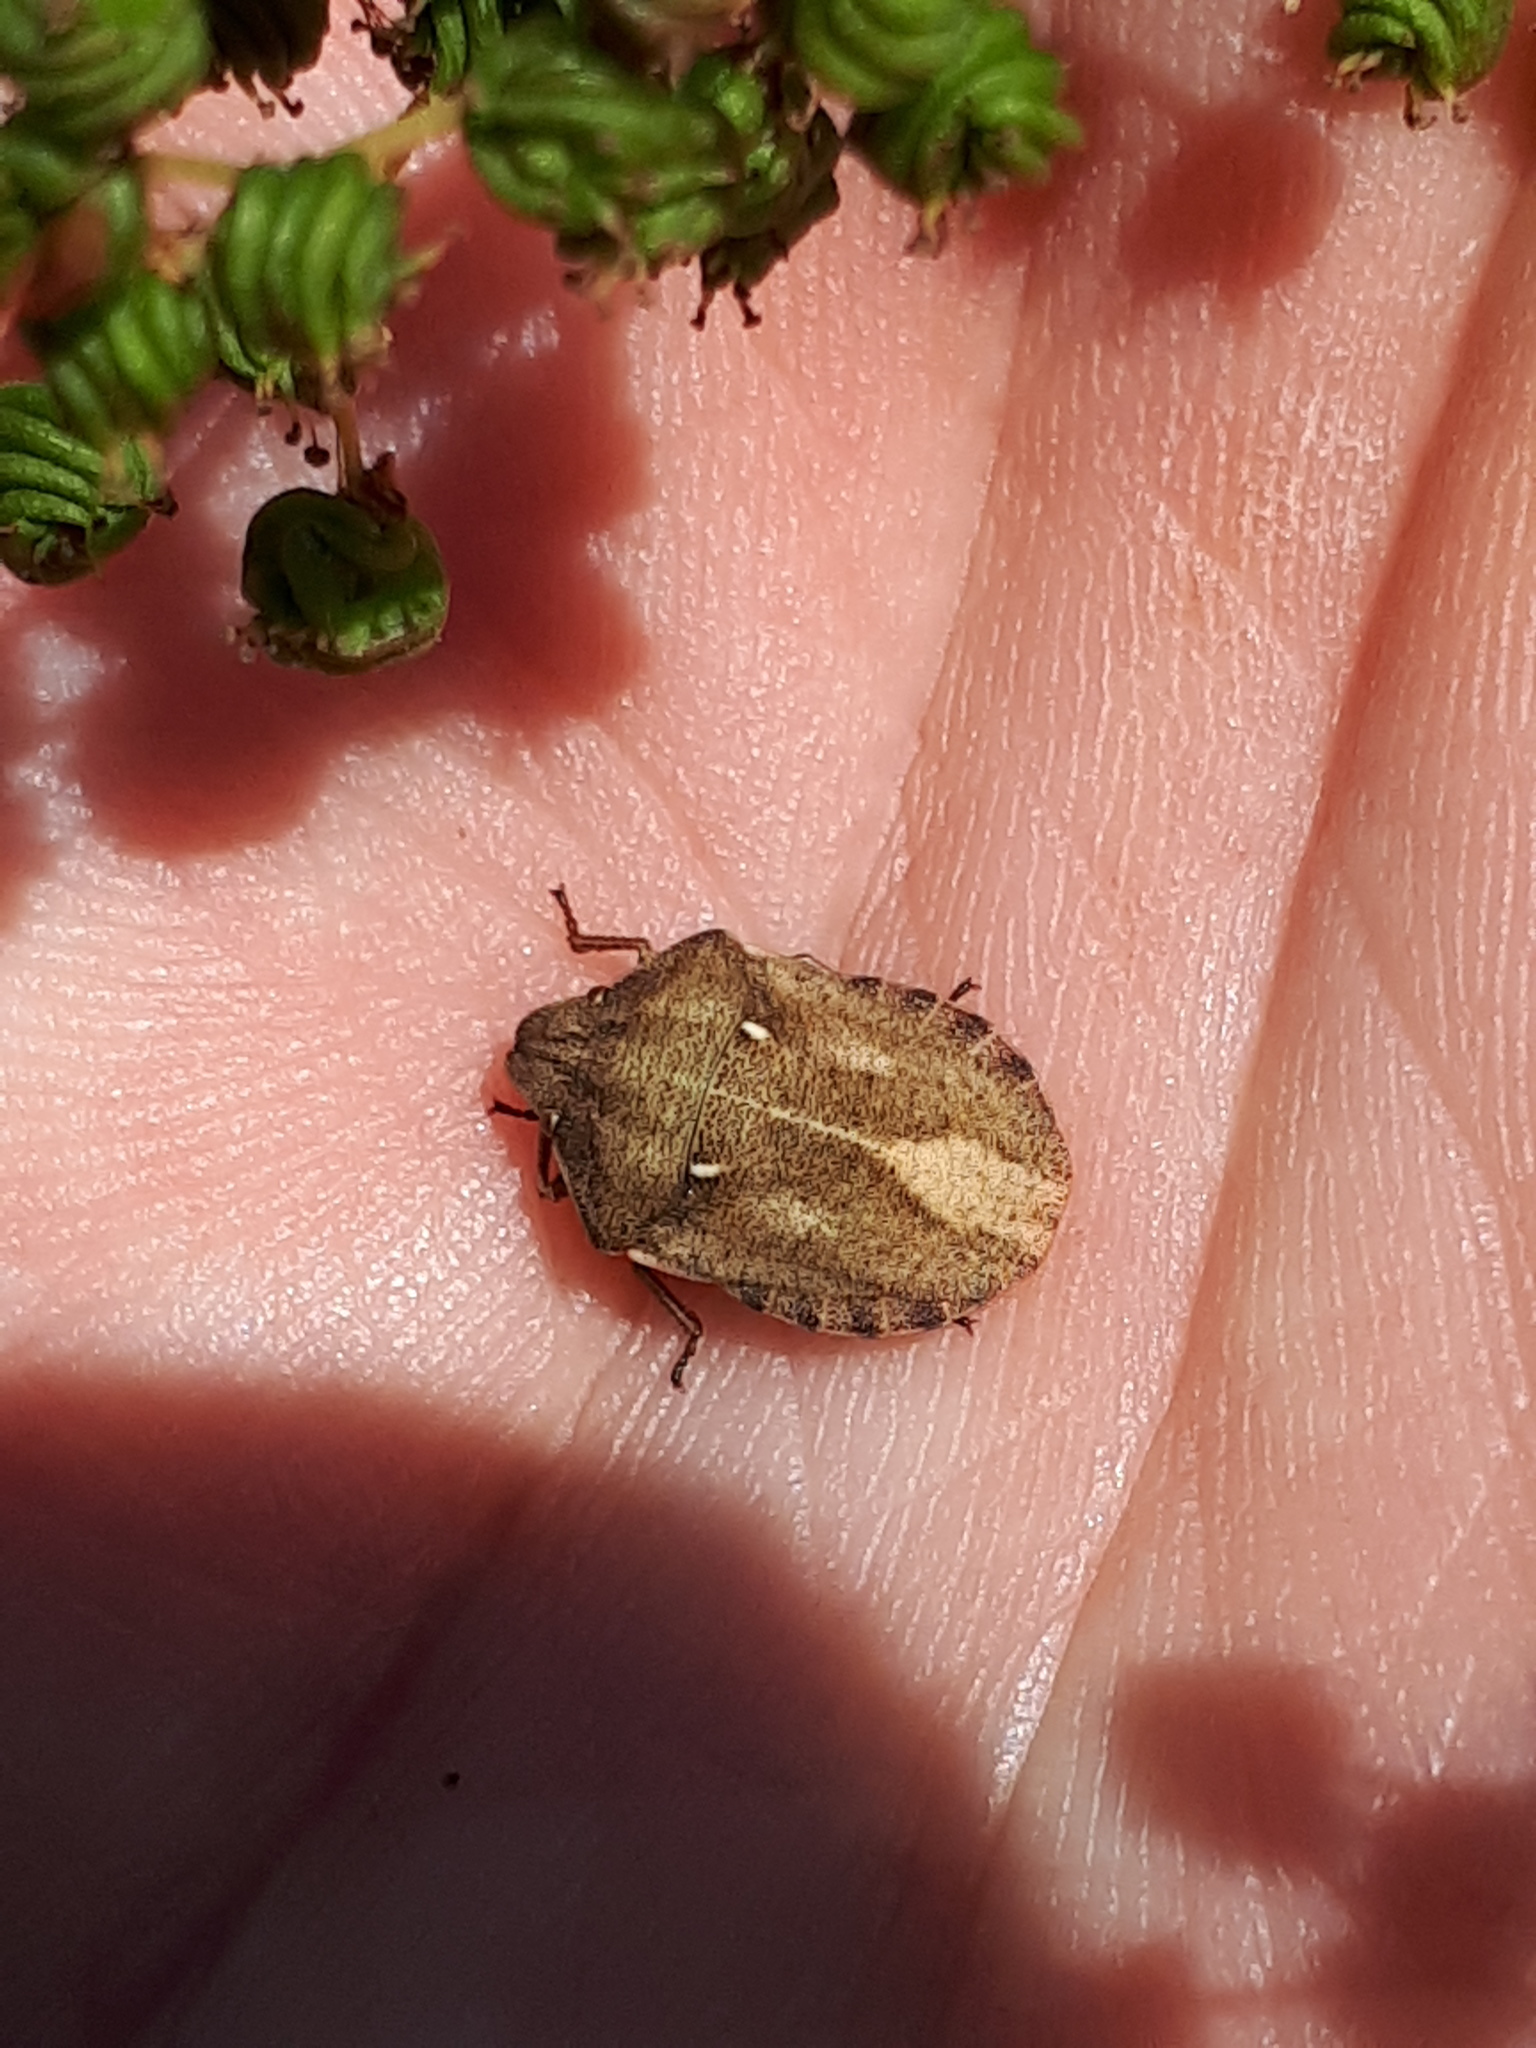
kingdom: Animalia
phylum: Arthropoda
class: Insecta
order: Hemiptera
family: Scutelleridae
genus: Eurygaster
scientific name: Eurygaster testudinaria
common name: Tortoise bug
